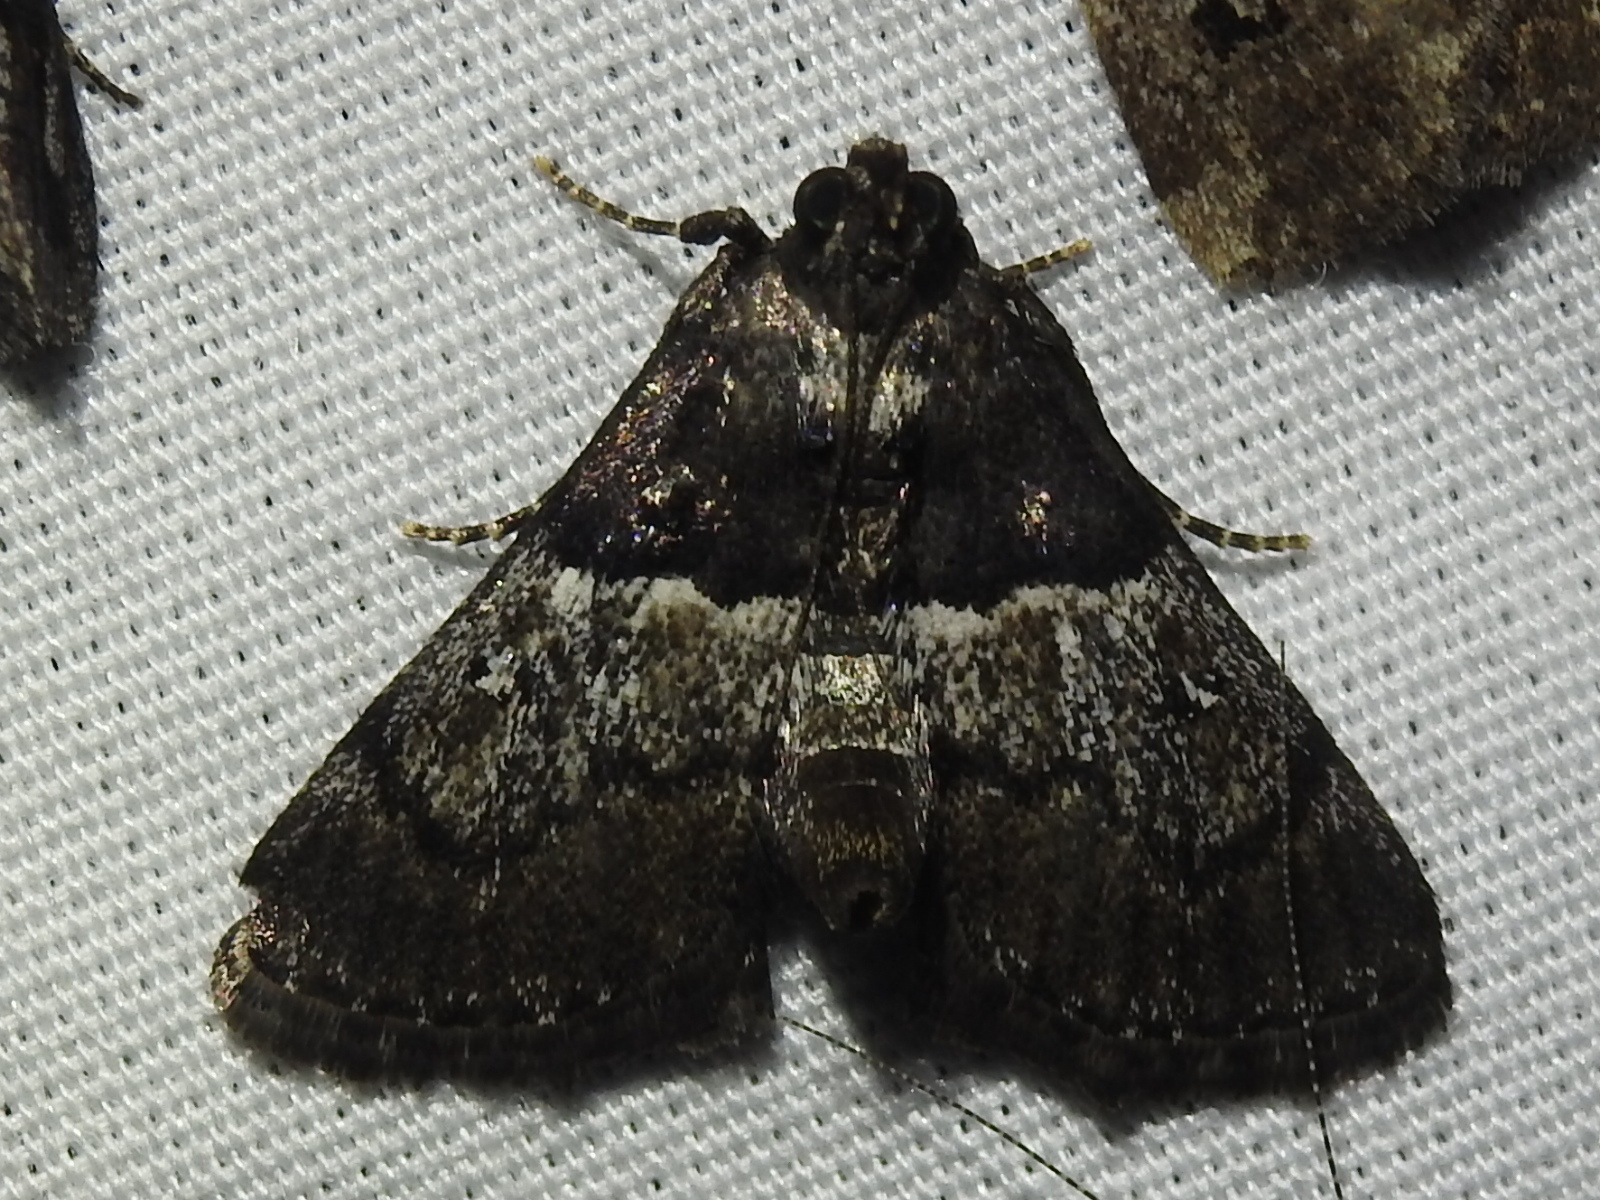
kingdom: Animalia
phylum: Arthropoda
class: Insecta
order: Lepidoptera
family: Pyralidae
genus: Macalla
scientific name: Macalla zelleri
